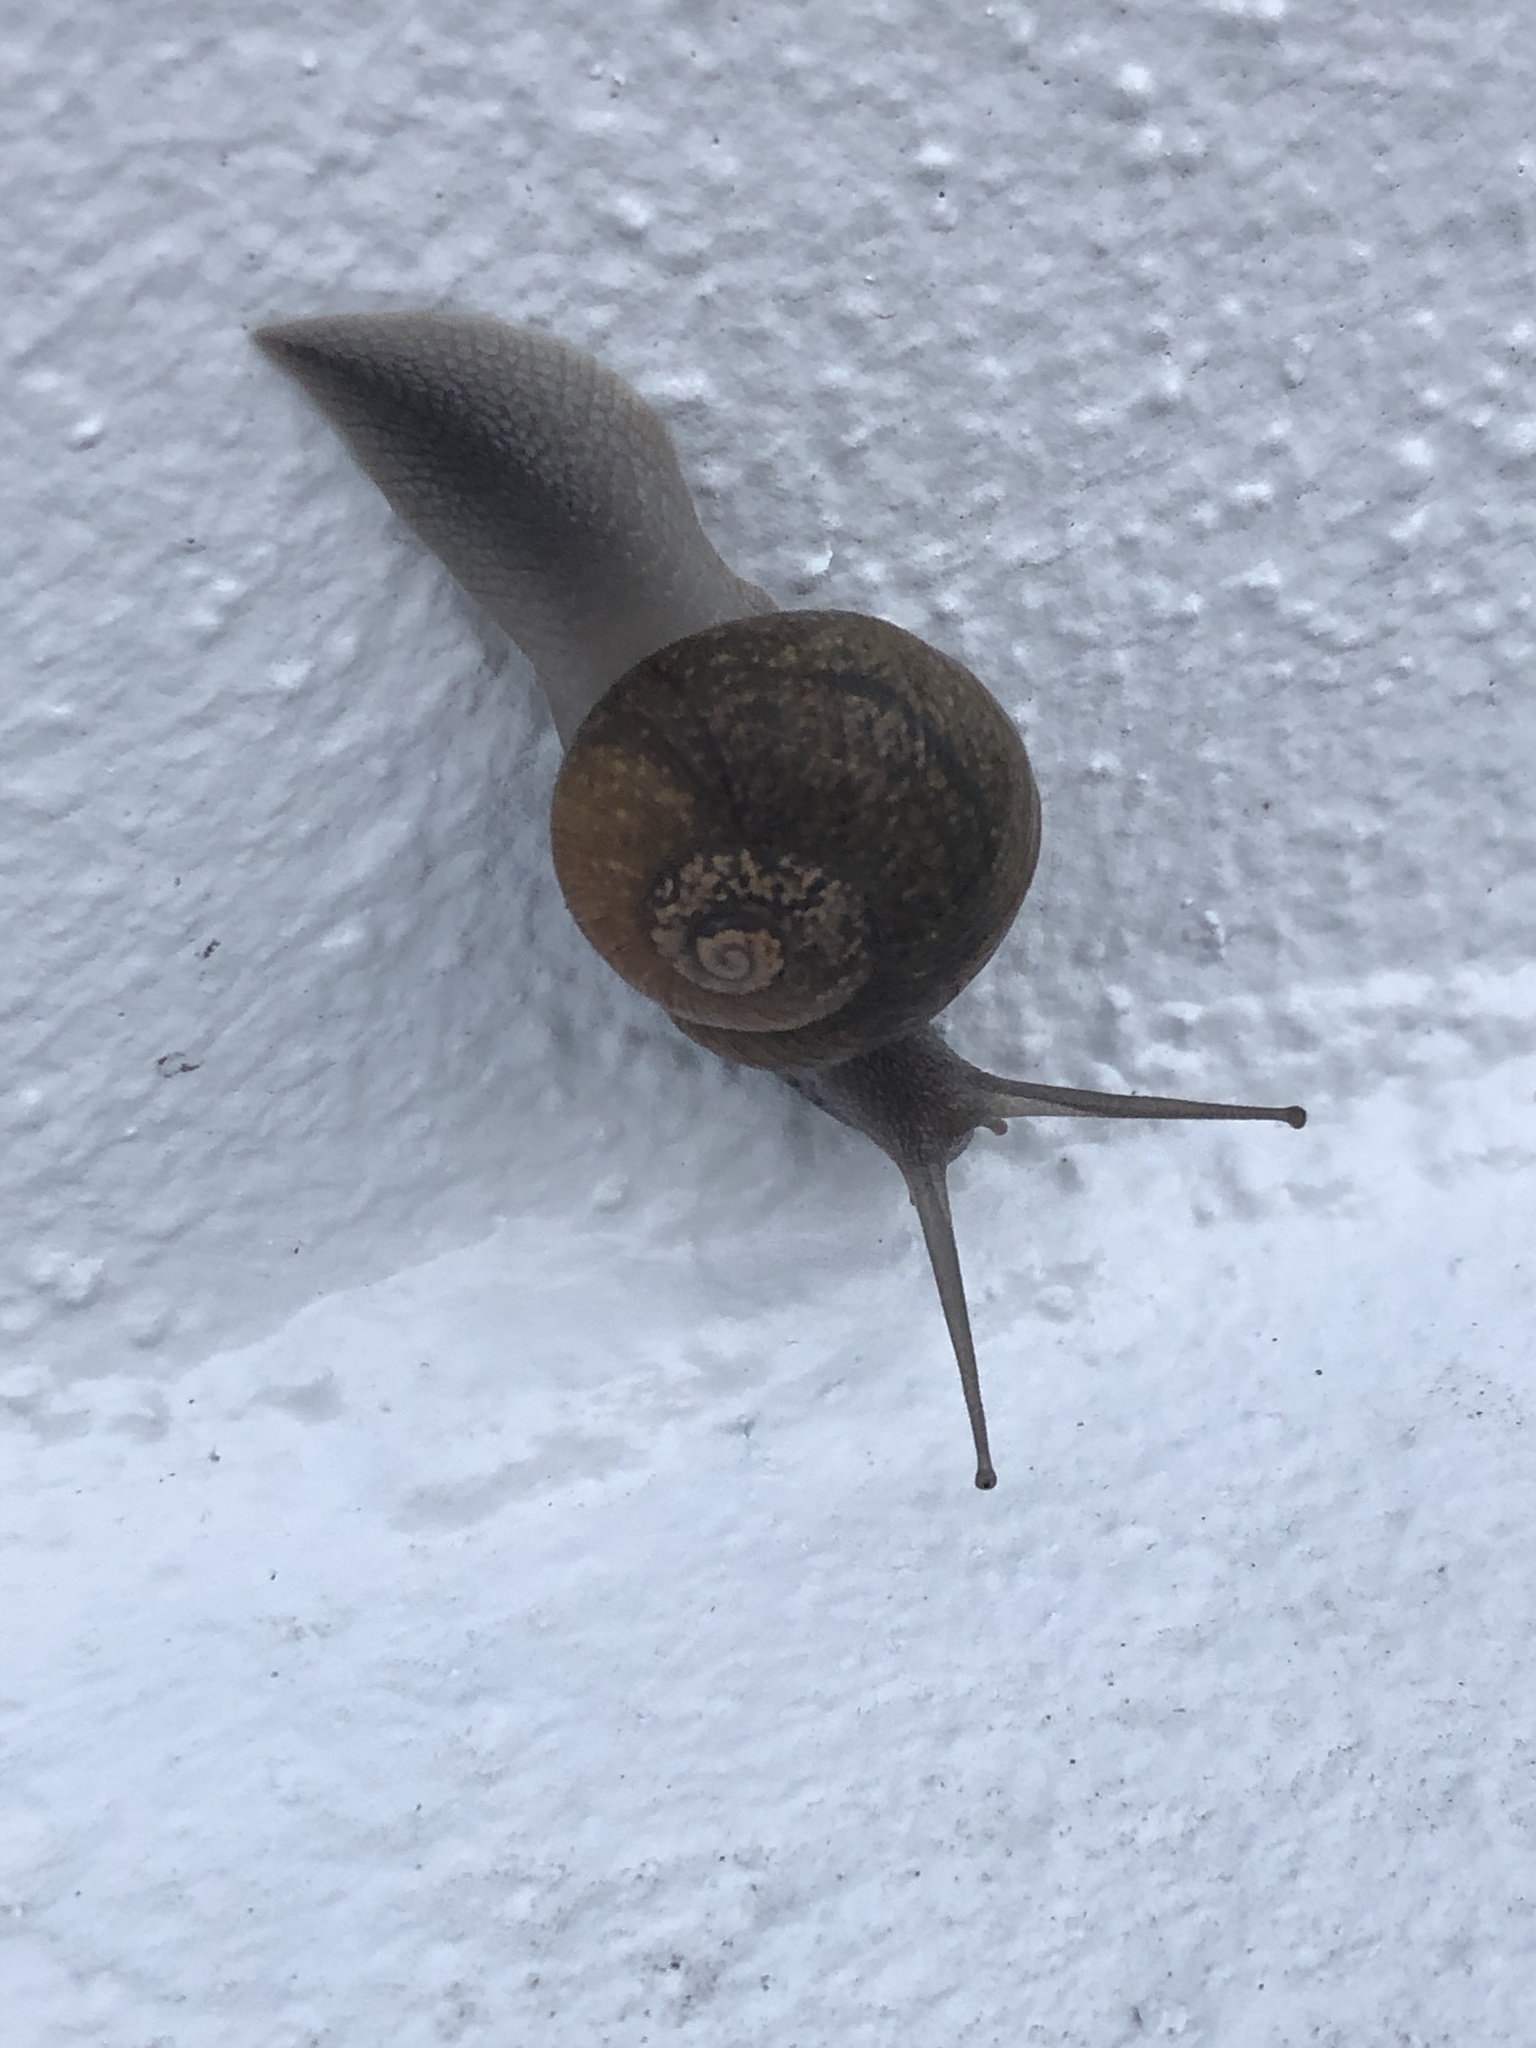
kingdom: Animalia
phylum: Mollusca
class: Gastropoda
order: Stylommatophora
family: Zachrysiidae
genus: Zachrysia
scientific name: Zachrysia provisoria
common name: Garden zachrysia
